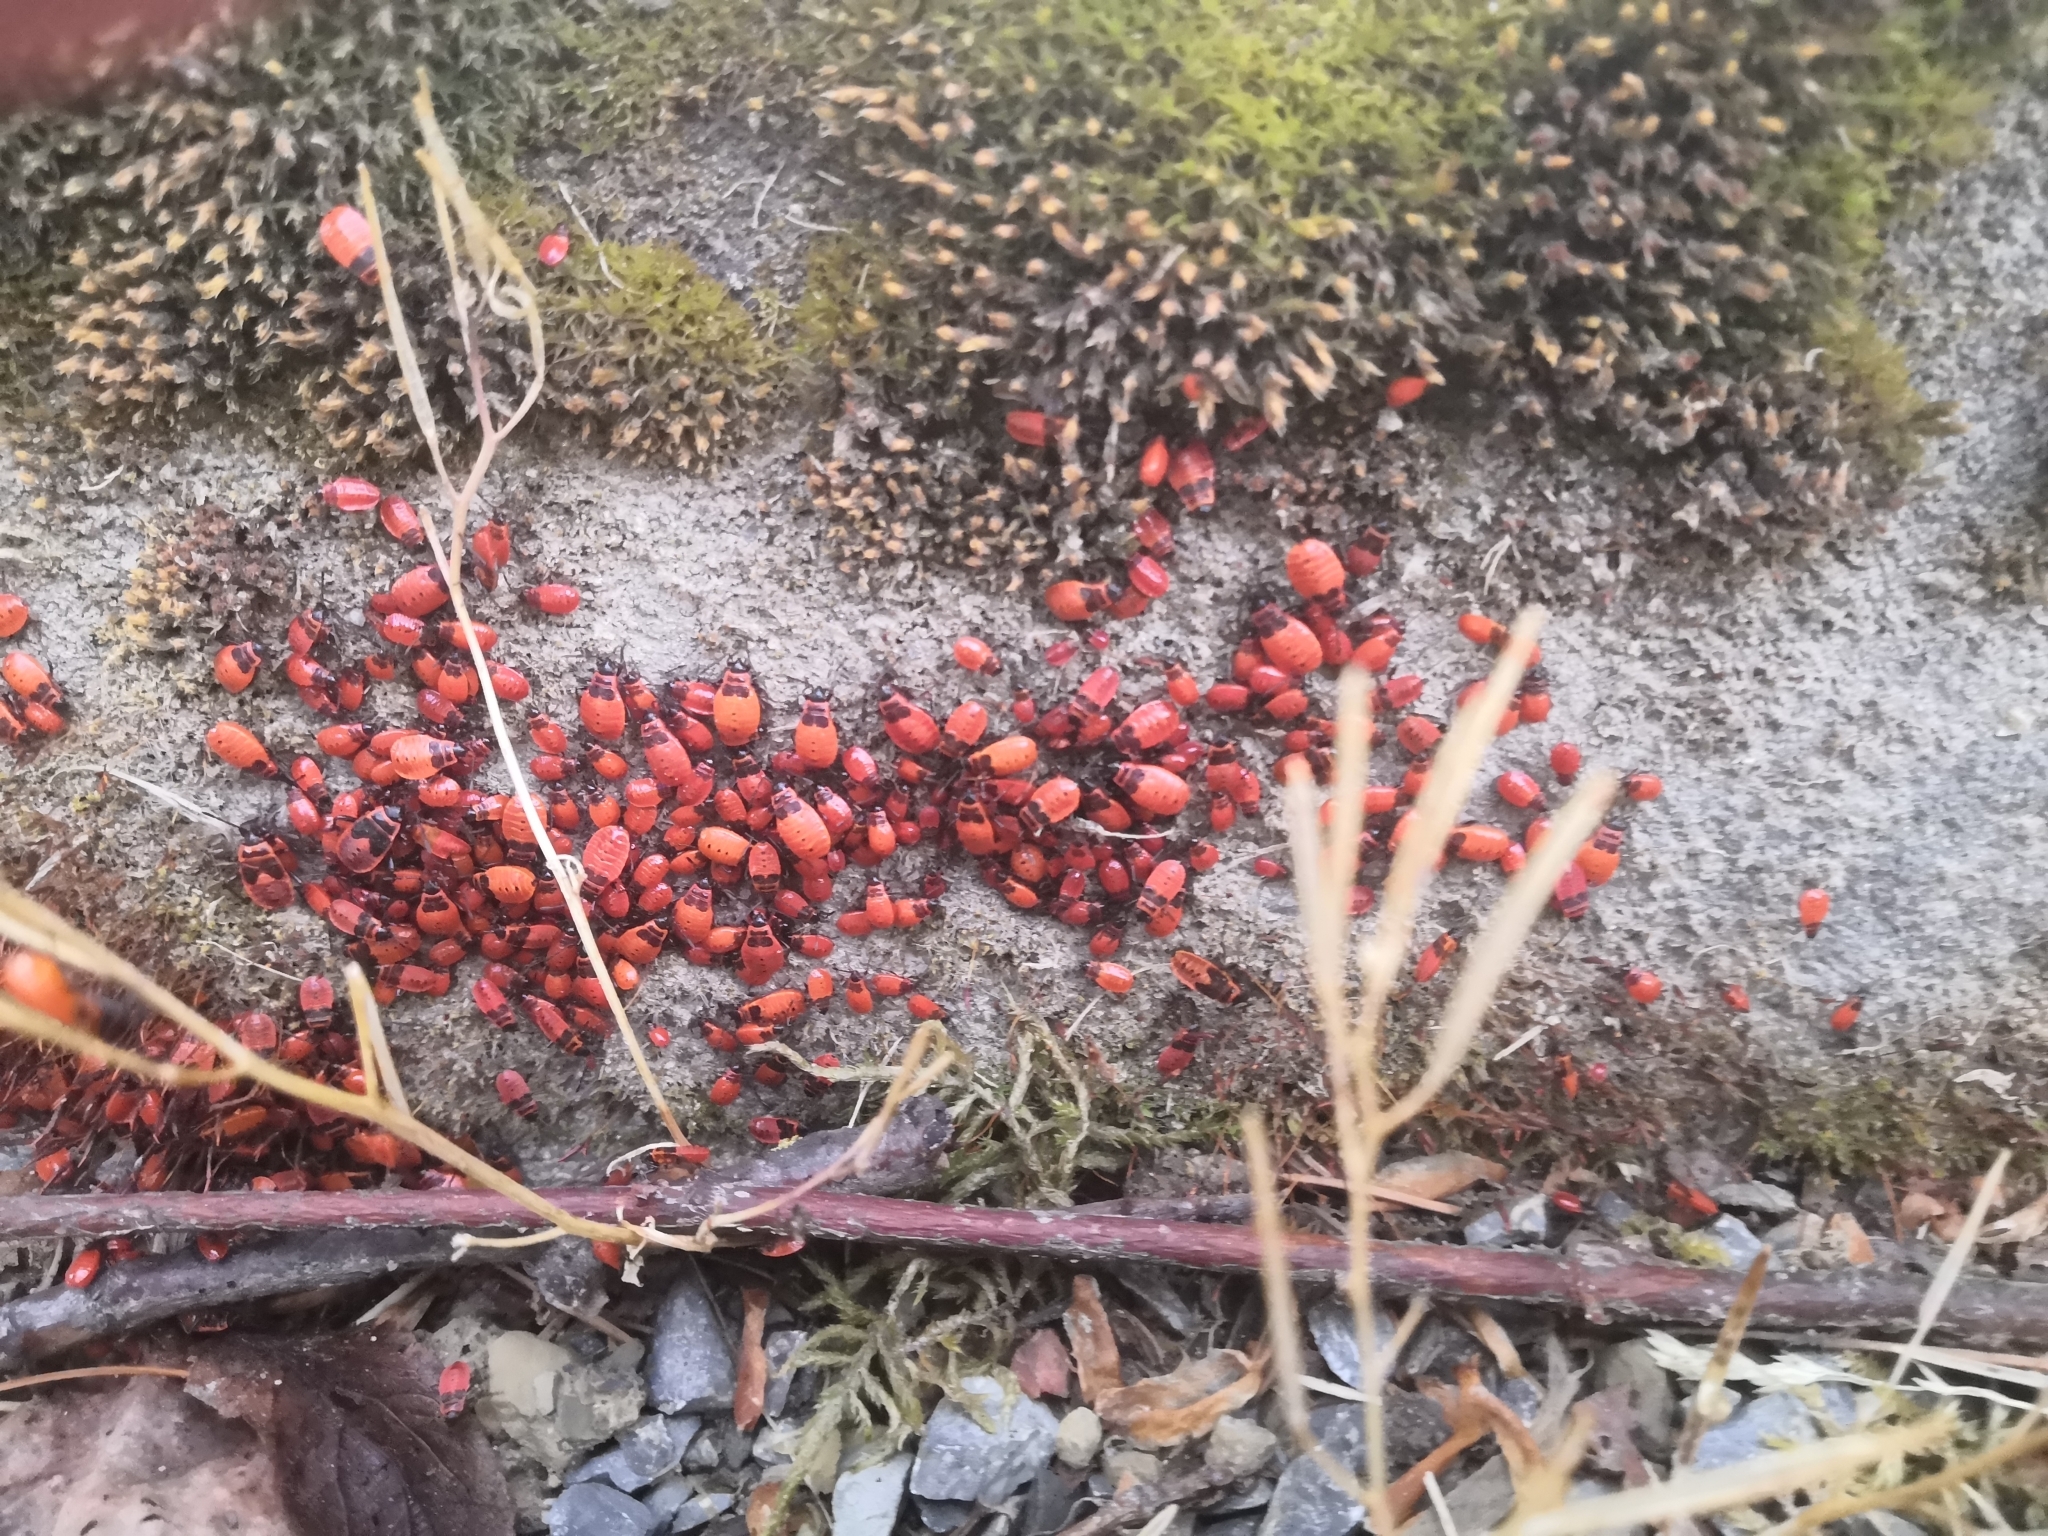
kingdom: Animalia
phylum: Arthropoda
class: Insecta
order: Hemiptera
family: Pyrrhocoridae
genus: Pyrrhocoris
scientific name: Pyrrhocoris apterus
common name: Firebug
